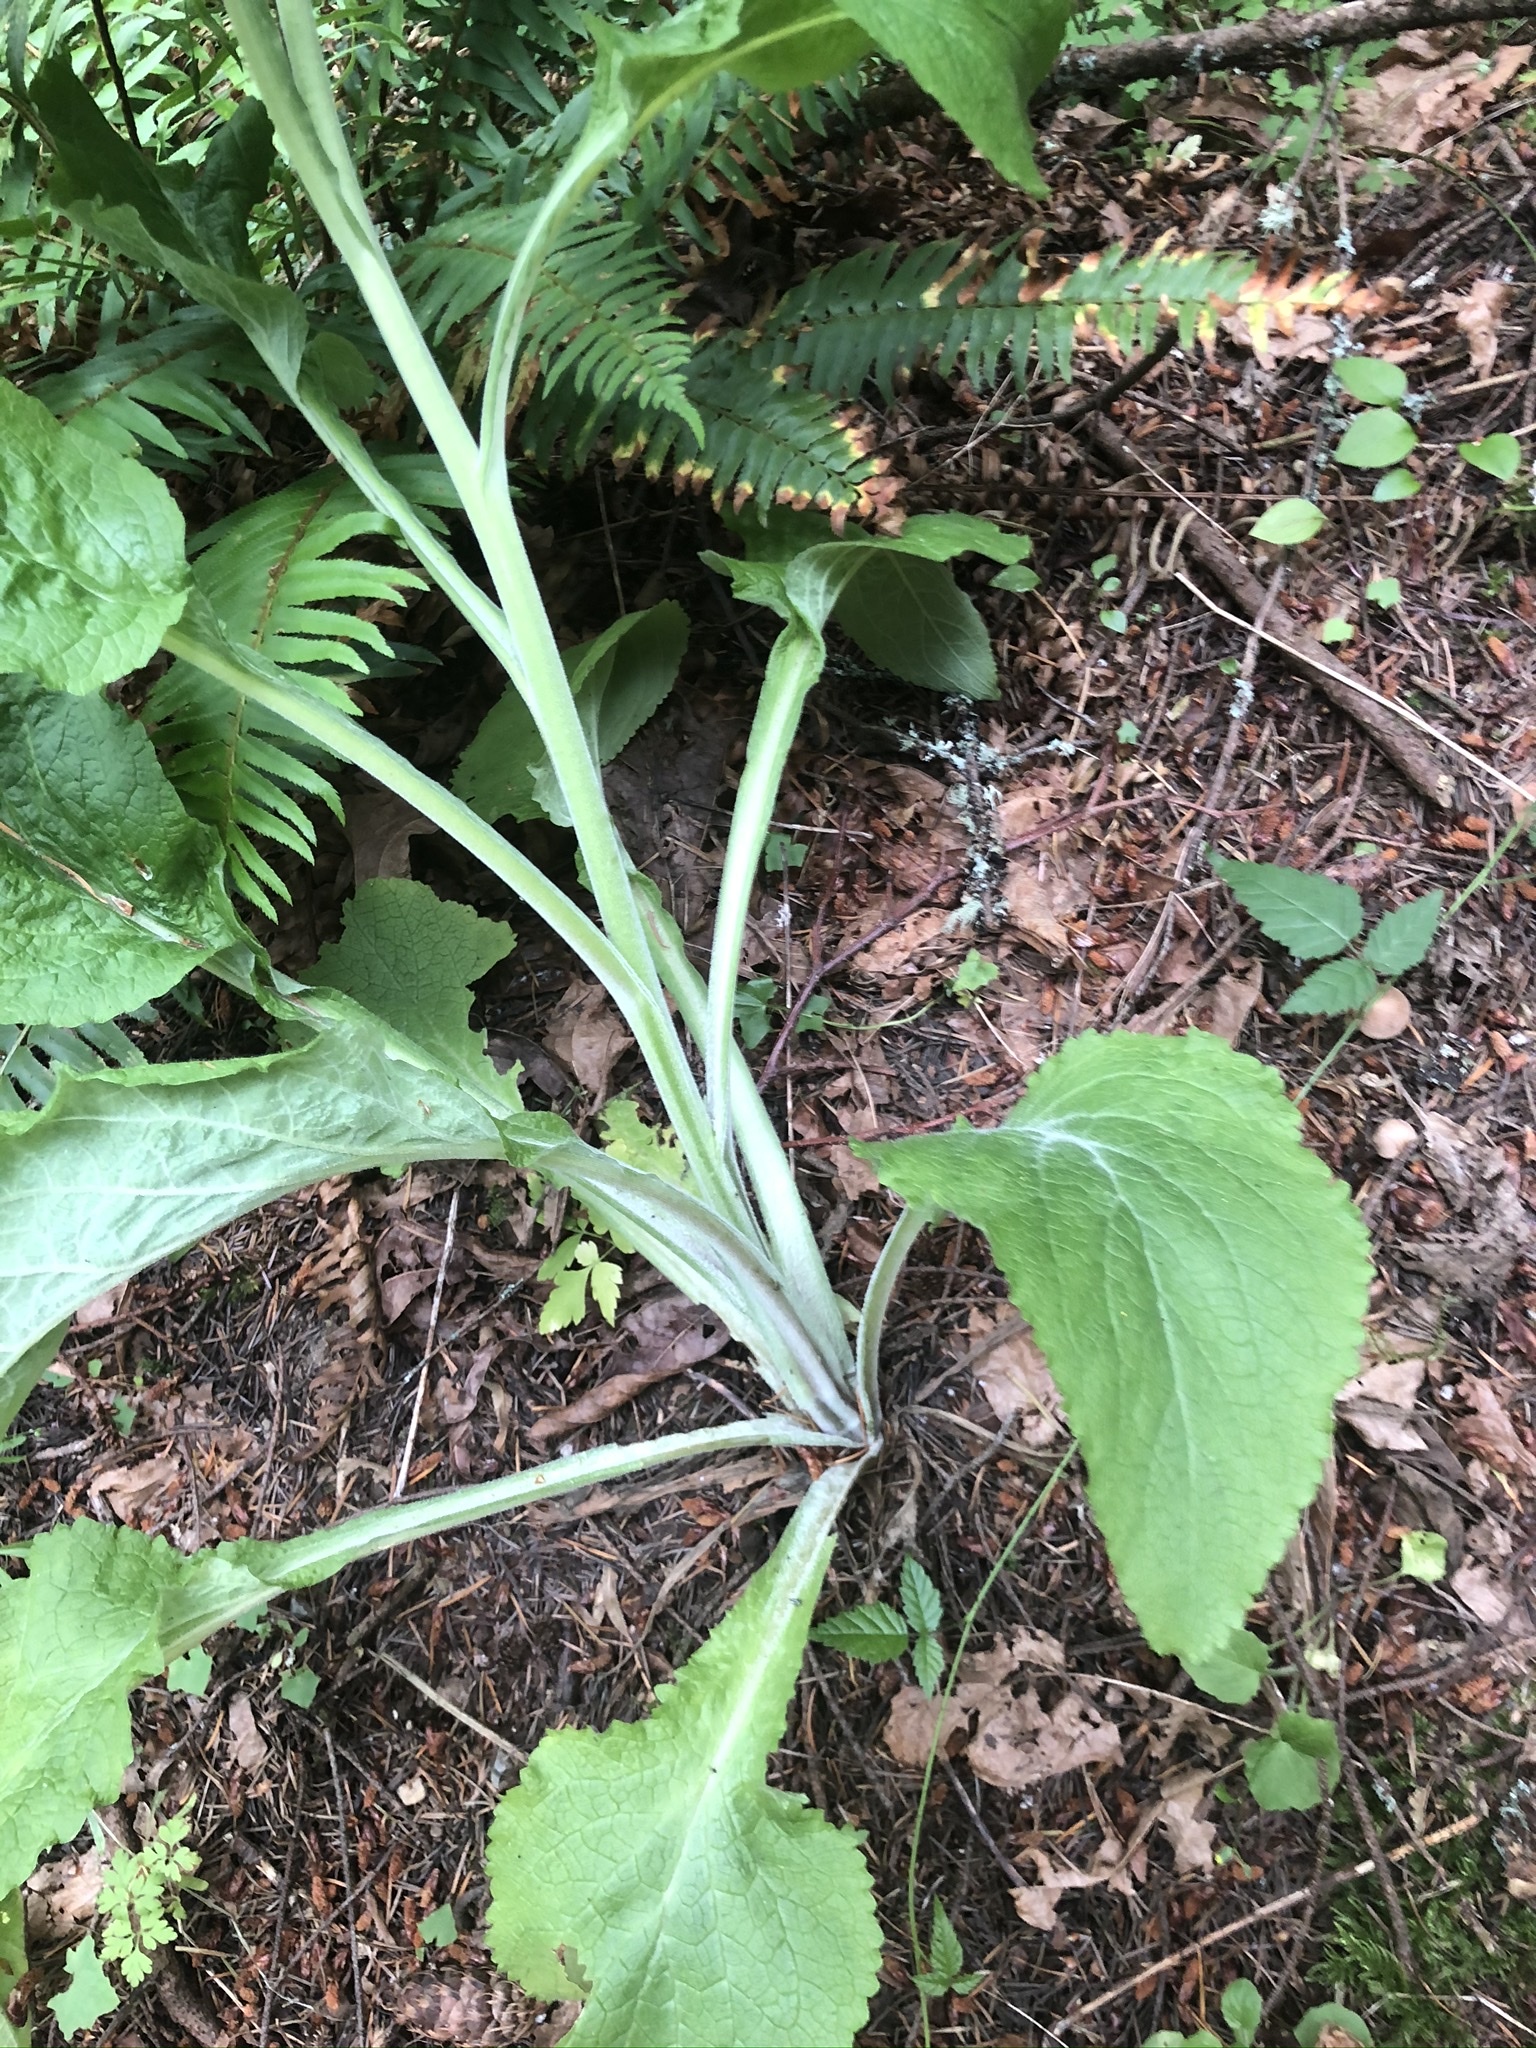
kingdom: Plantae
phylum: Tracheophyta
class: Magnoliopsida
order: Lamiales
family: Plantaginaceae
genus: Digitalis
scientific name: Digitalis purpurea
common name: Foxglove
